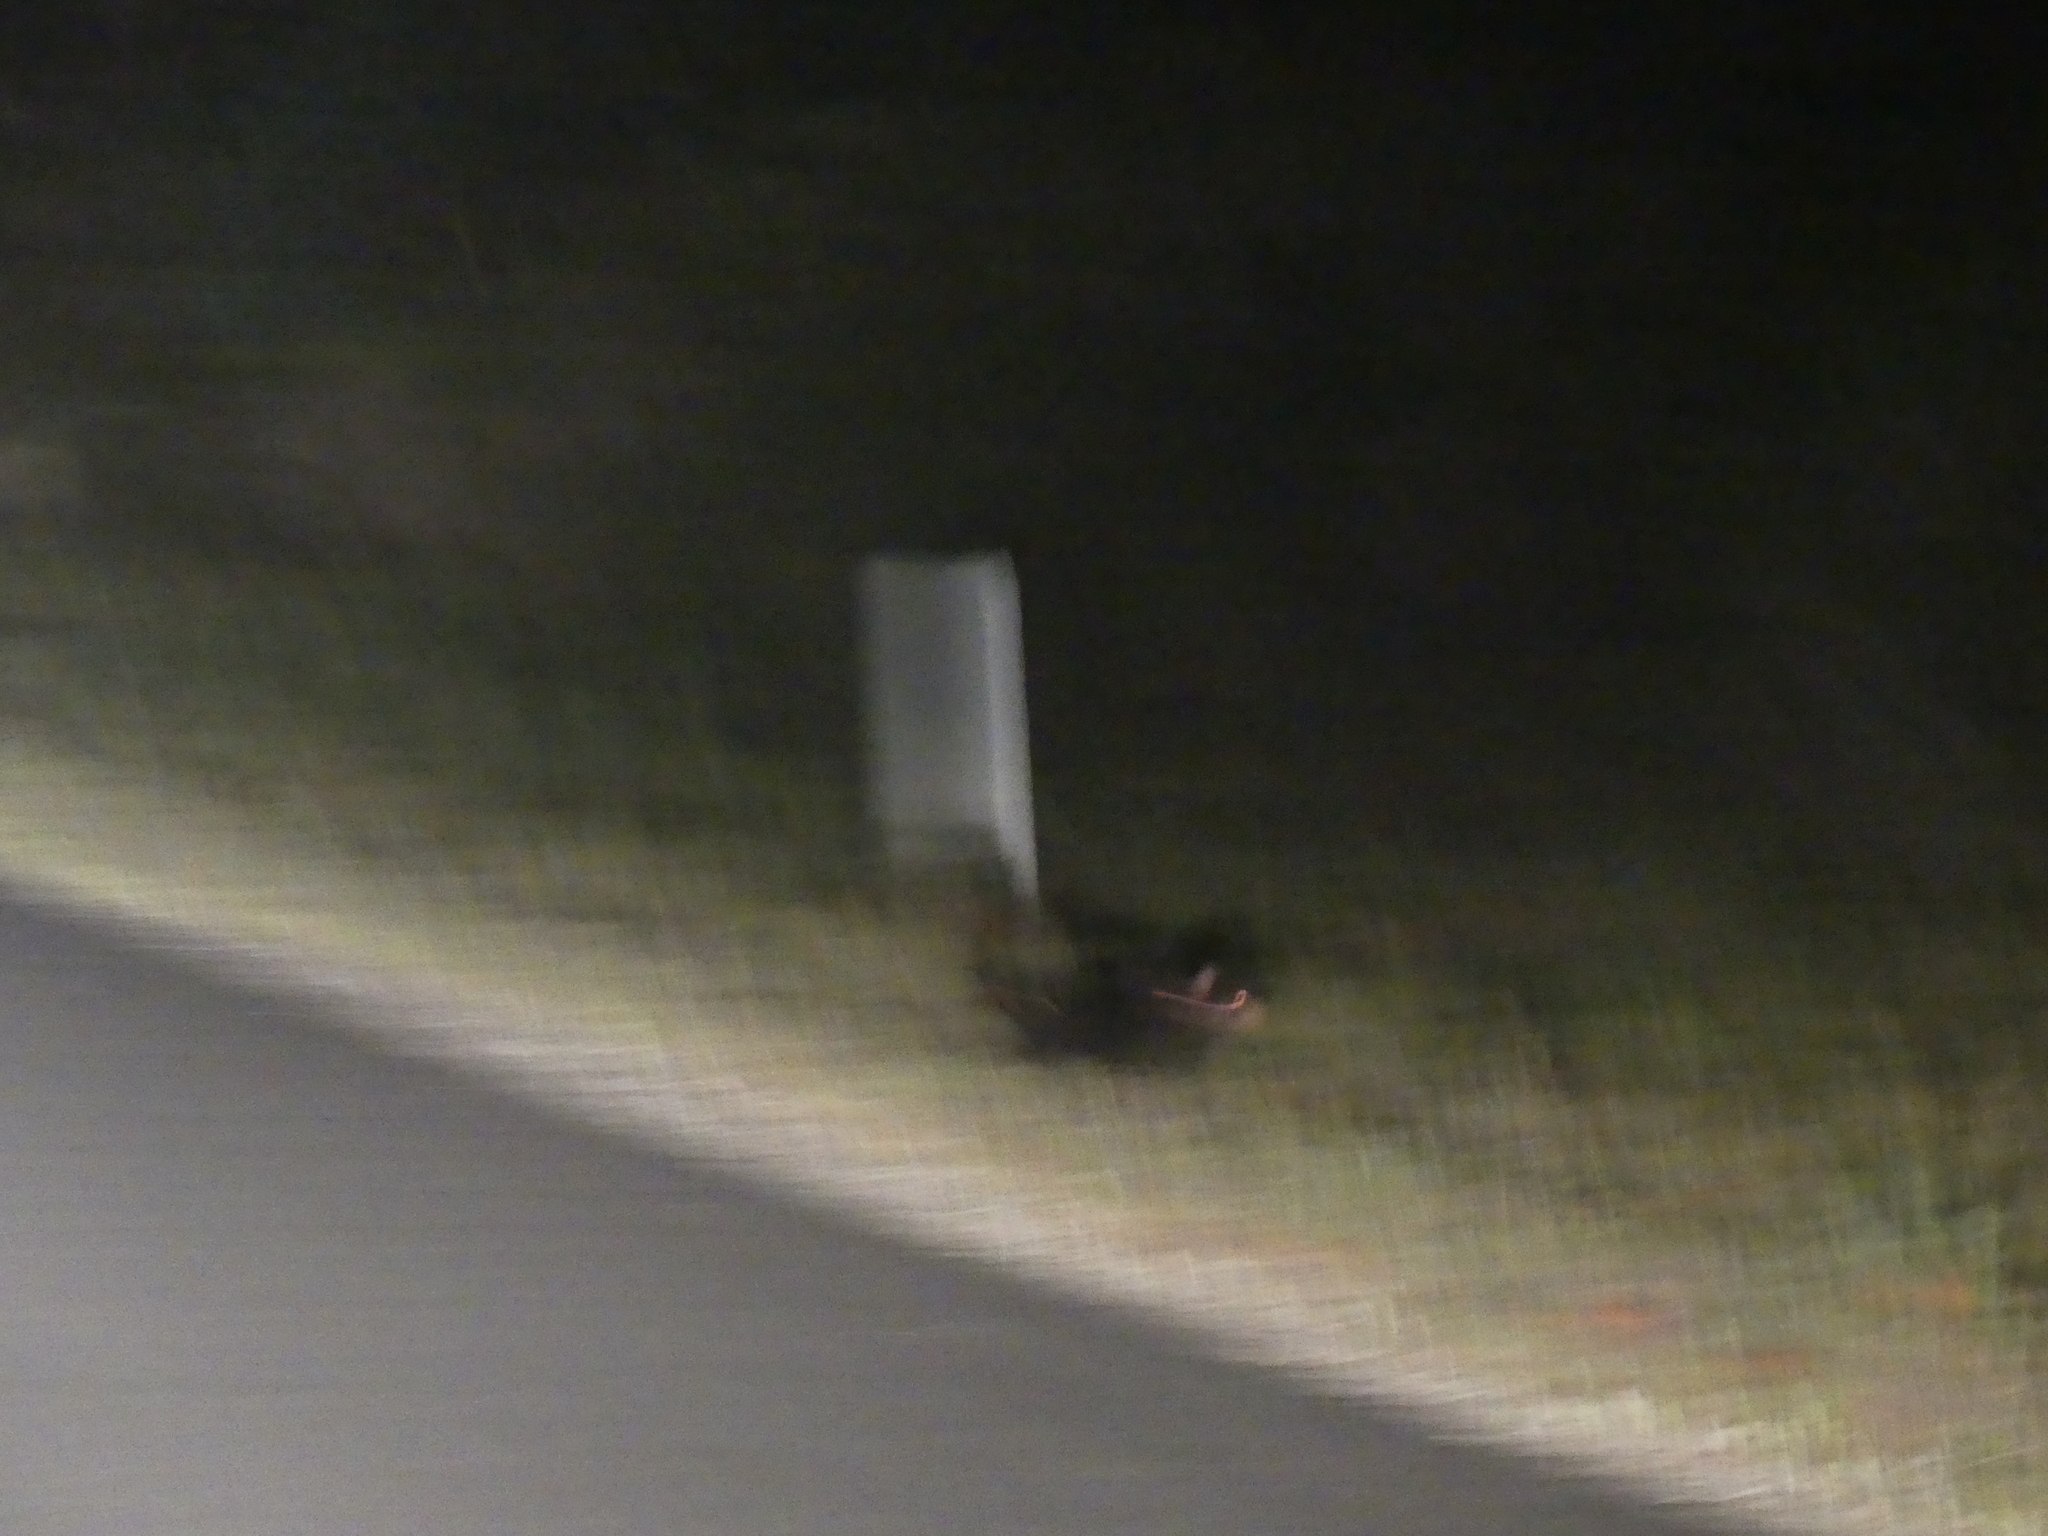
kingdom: Animalia
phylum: Chordata
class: Mammalia
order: Dasyuromorphia
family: Dasyuridae
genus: Sarcophilus
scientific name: Sarcophilus harrisii
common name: Tasmanian devil
